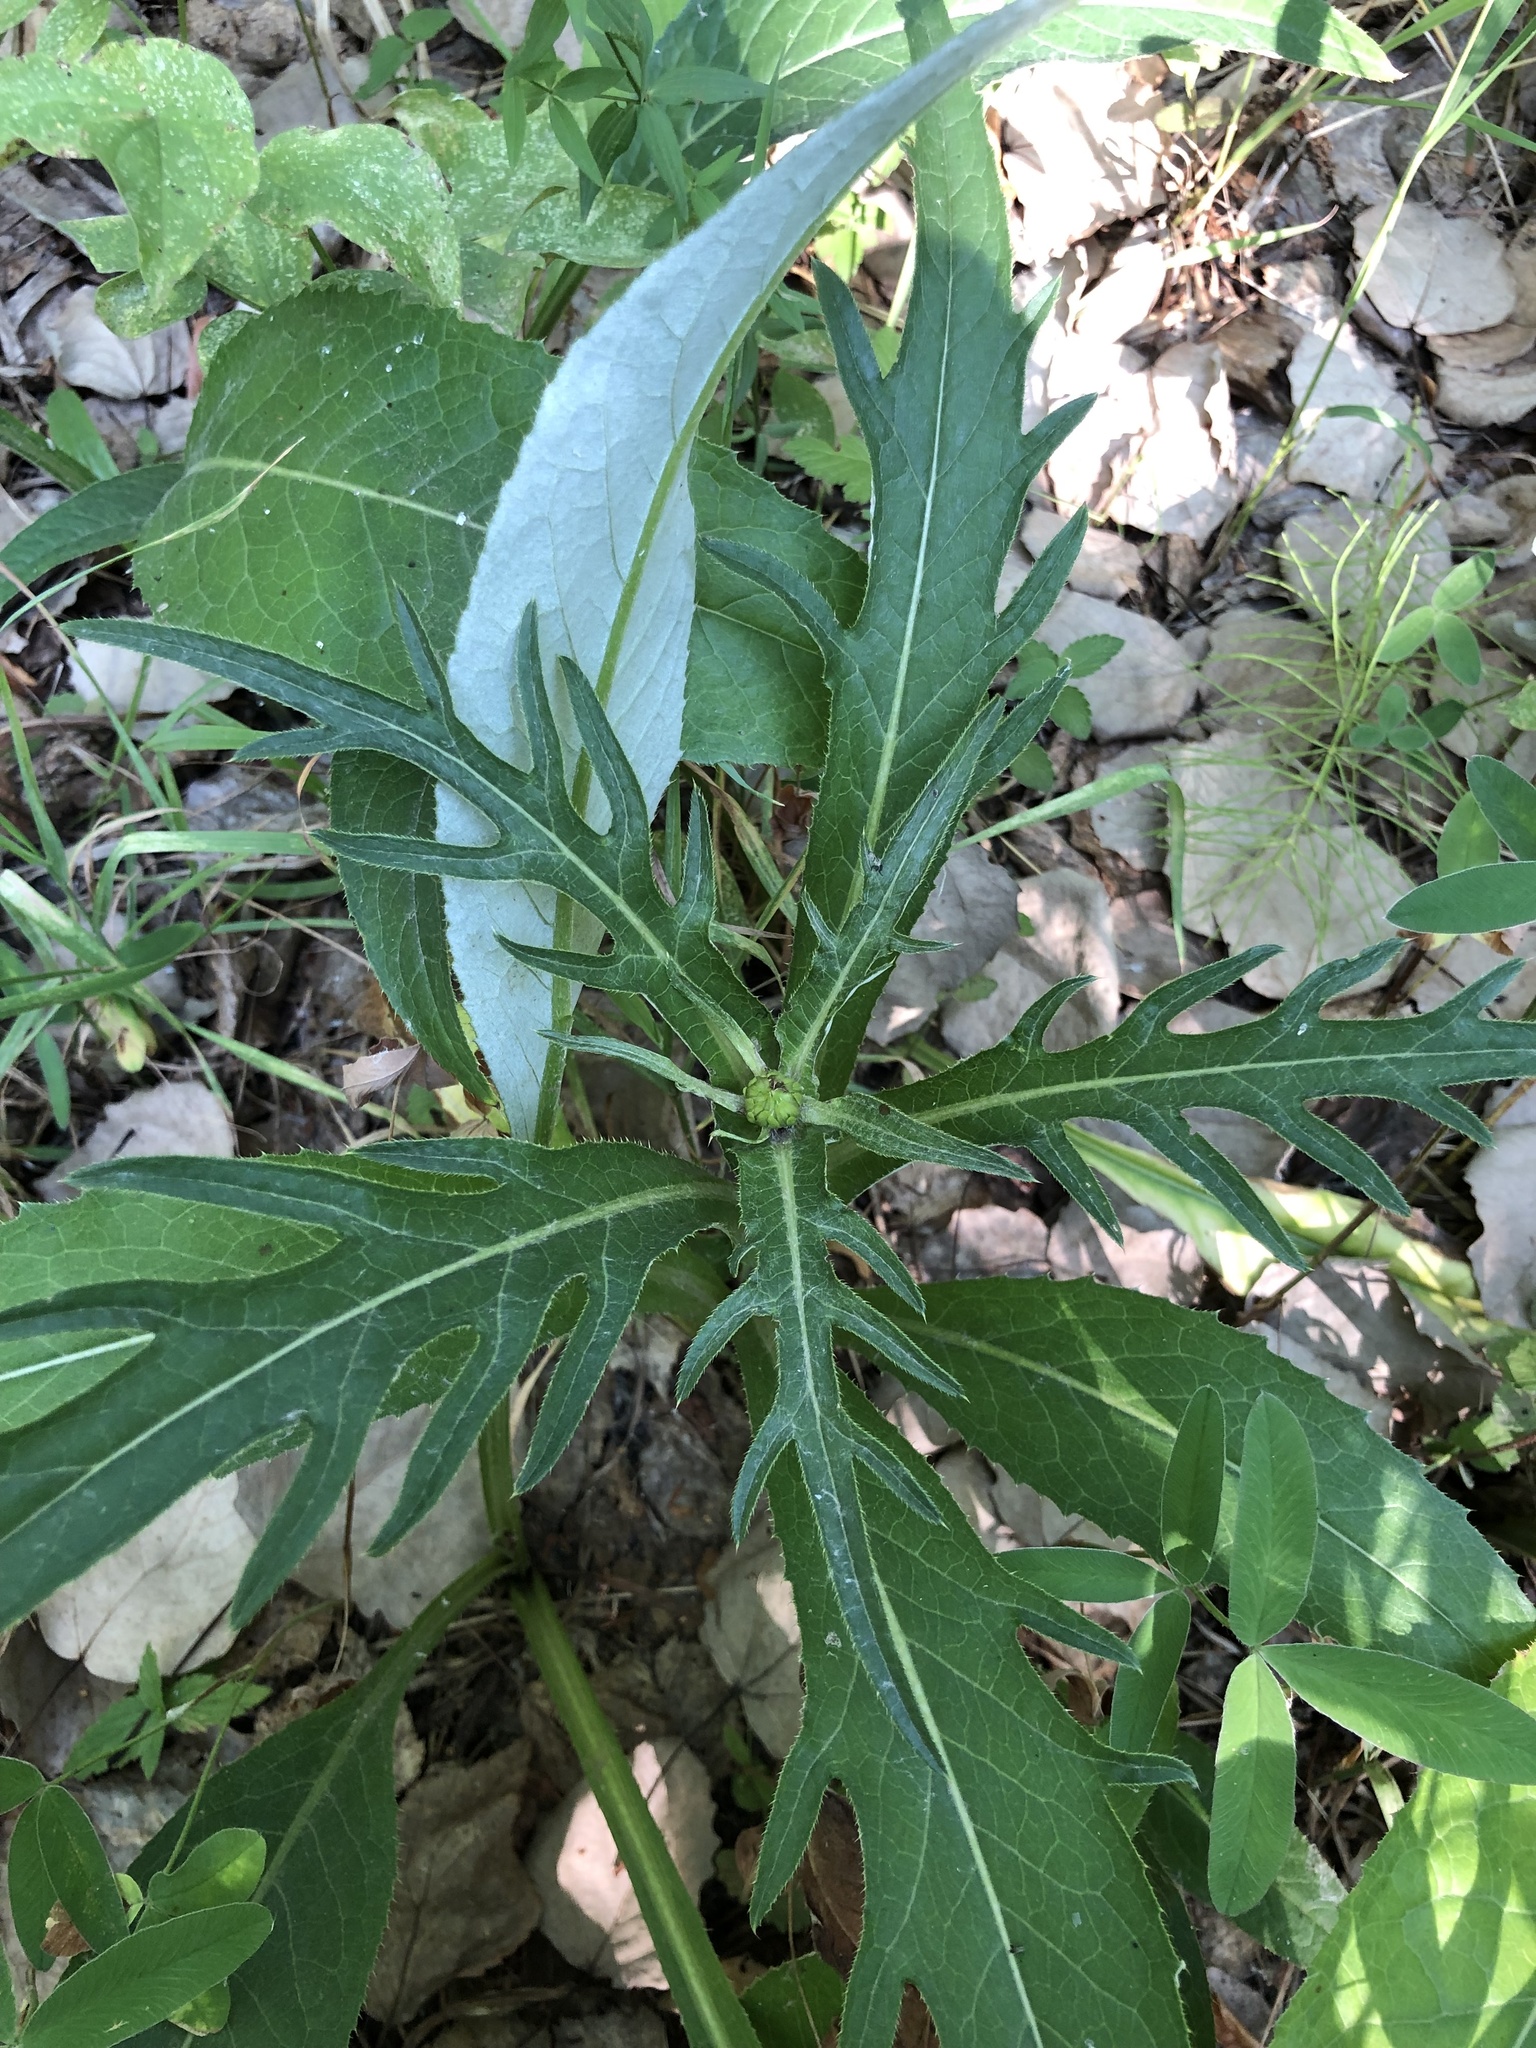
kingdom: Plantae
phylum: Tracheophyta
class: Magnoliopsida
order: Asterales
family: Asteraceae
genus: Cirsium
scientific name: Cirsium heterophyllum
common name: Melancholy thistle
